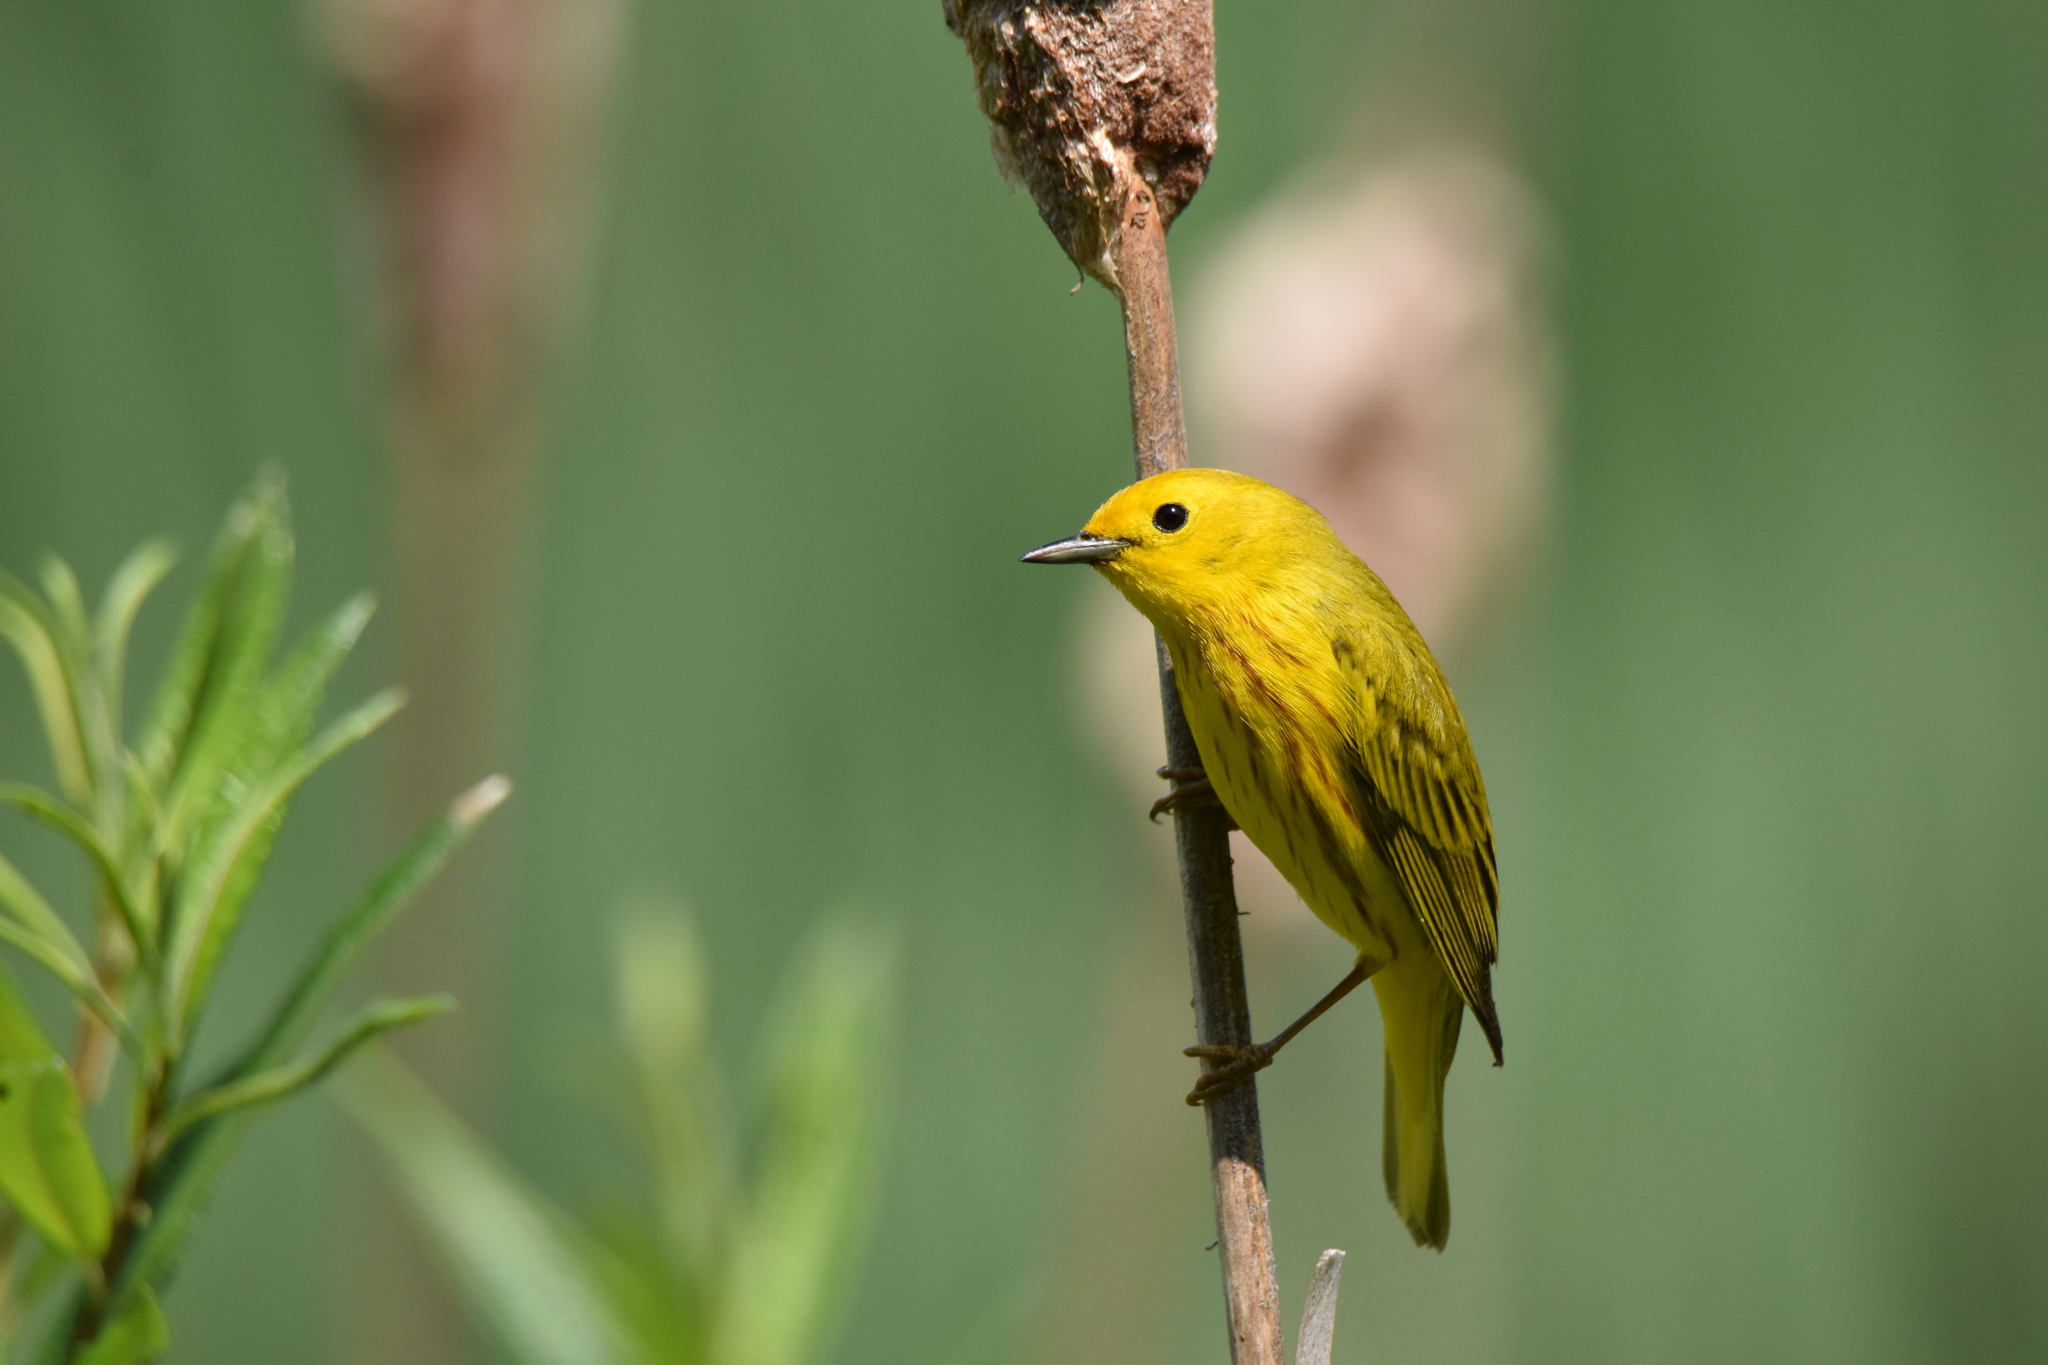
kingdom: Animalia
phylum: Chordata
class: Aves
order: Passeriformes
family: Parulidae
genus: Setophaga
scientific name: Setophaga petechia
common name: Yellow warbler
